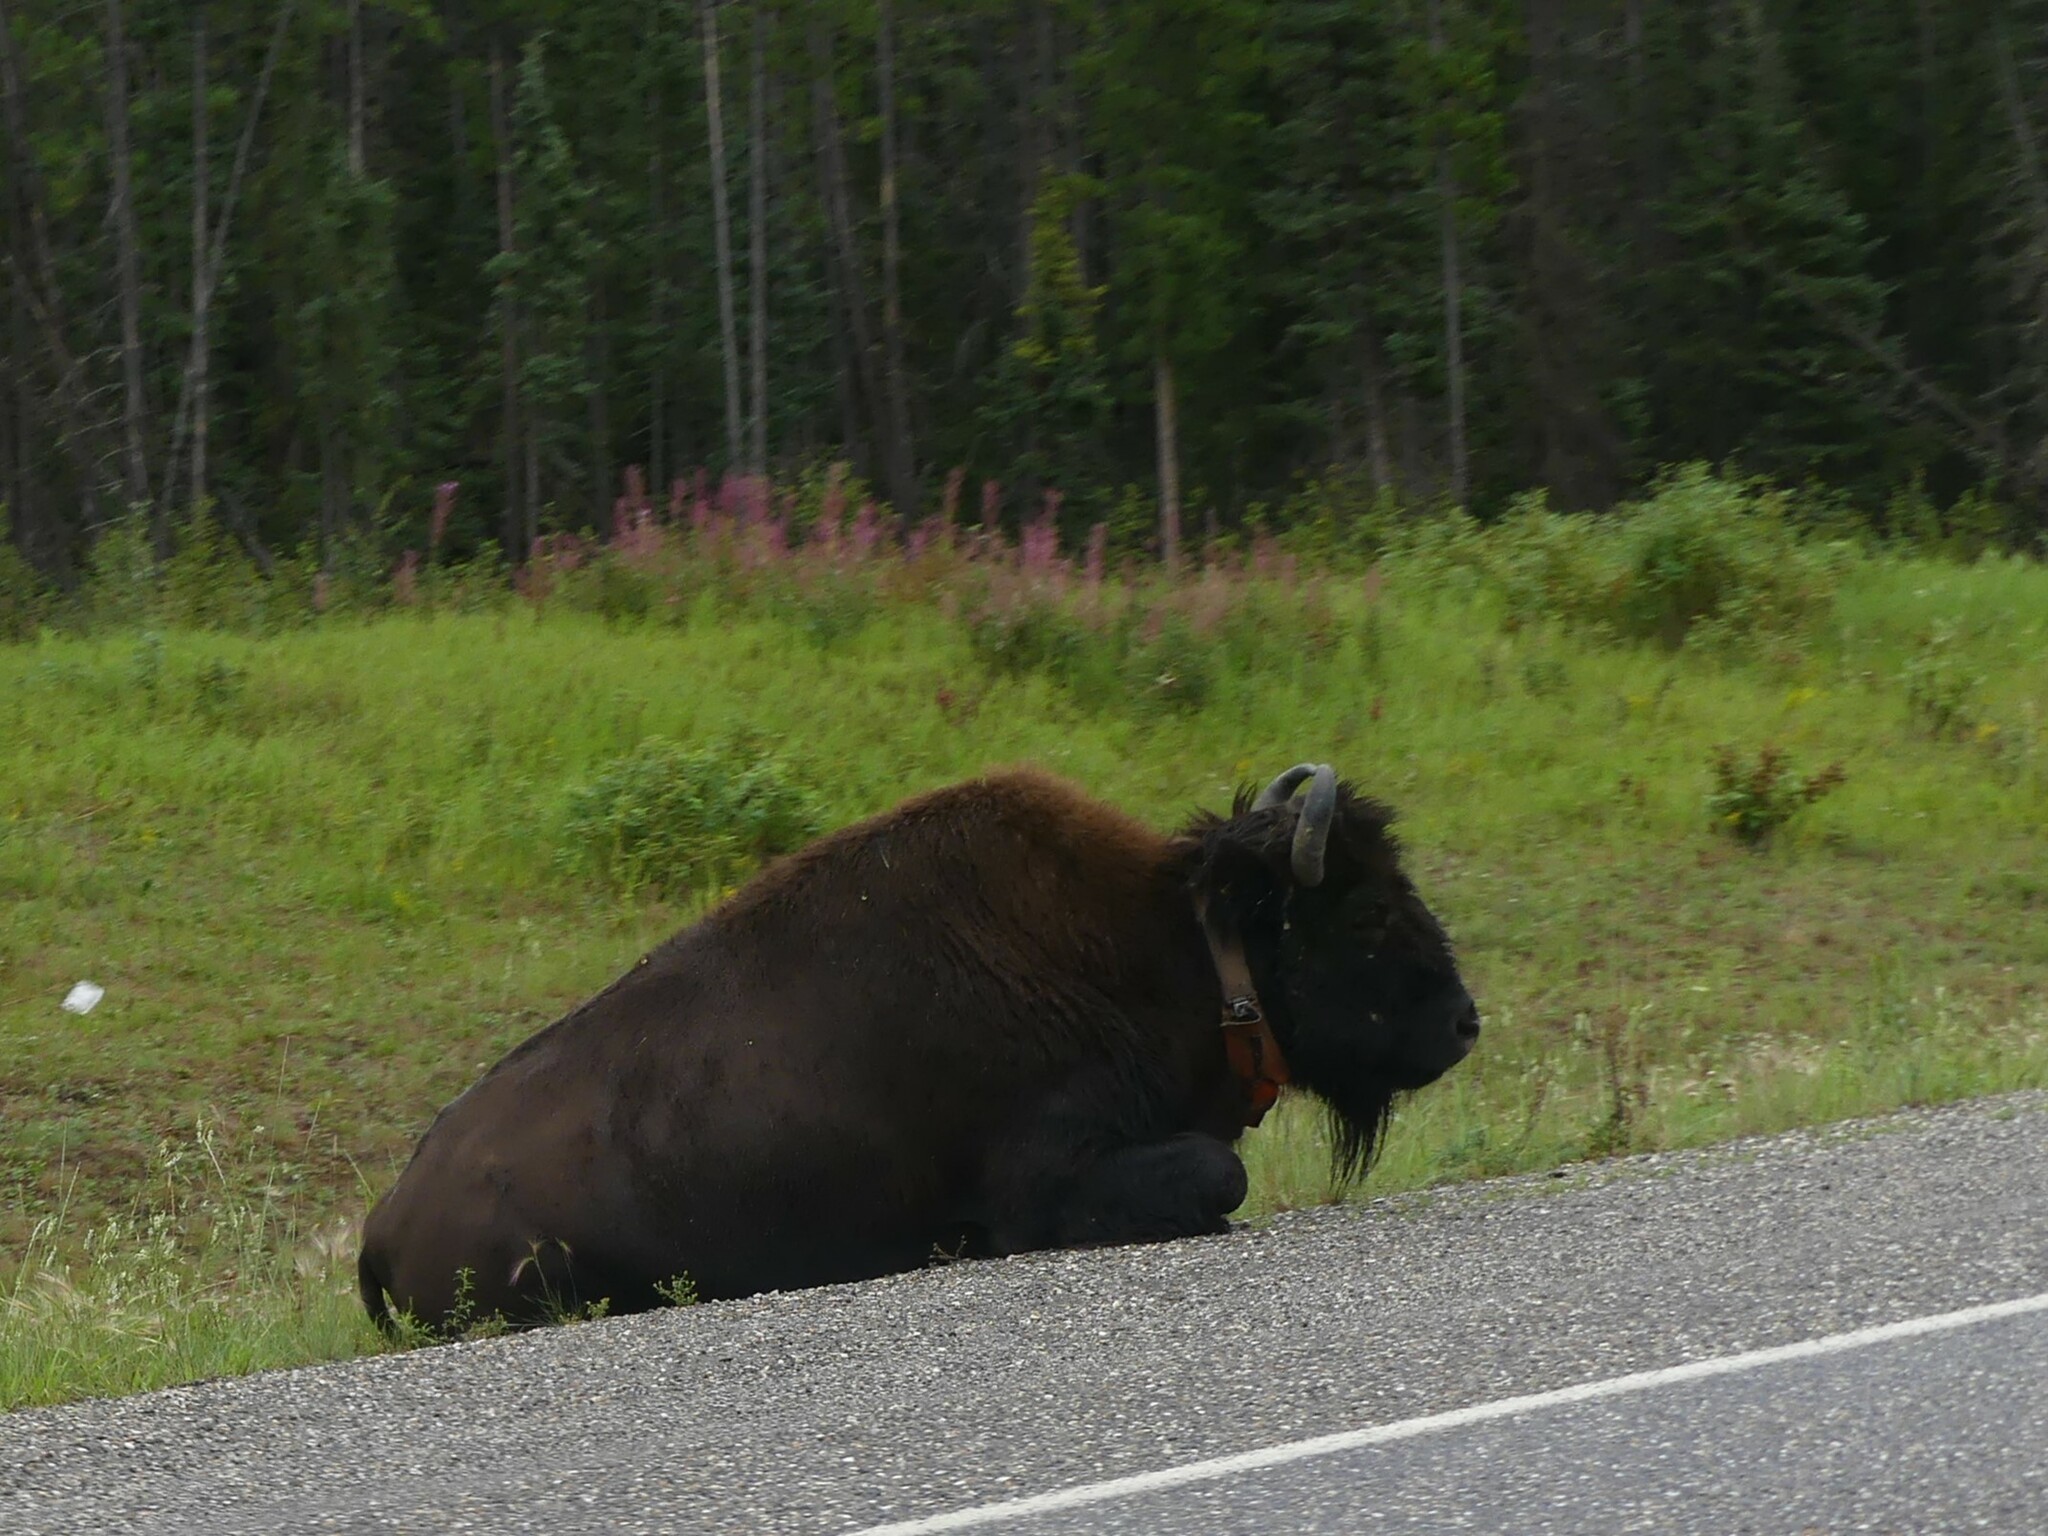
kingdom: Animalia
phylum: Chordata
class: Mammalia
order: Artiodactyla
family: Bovidae
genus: Bison
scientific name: Bison bison
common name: American bison
